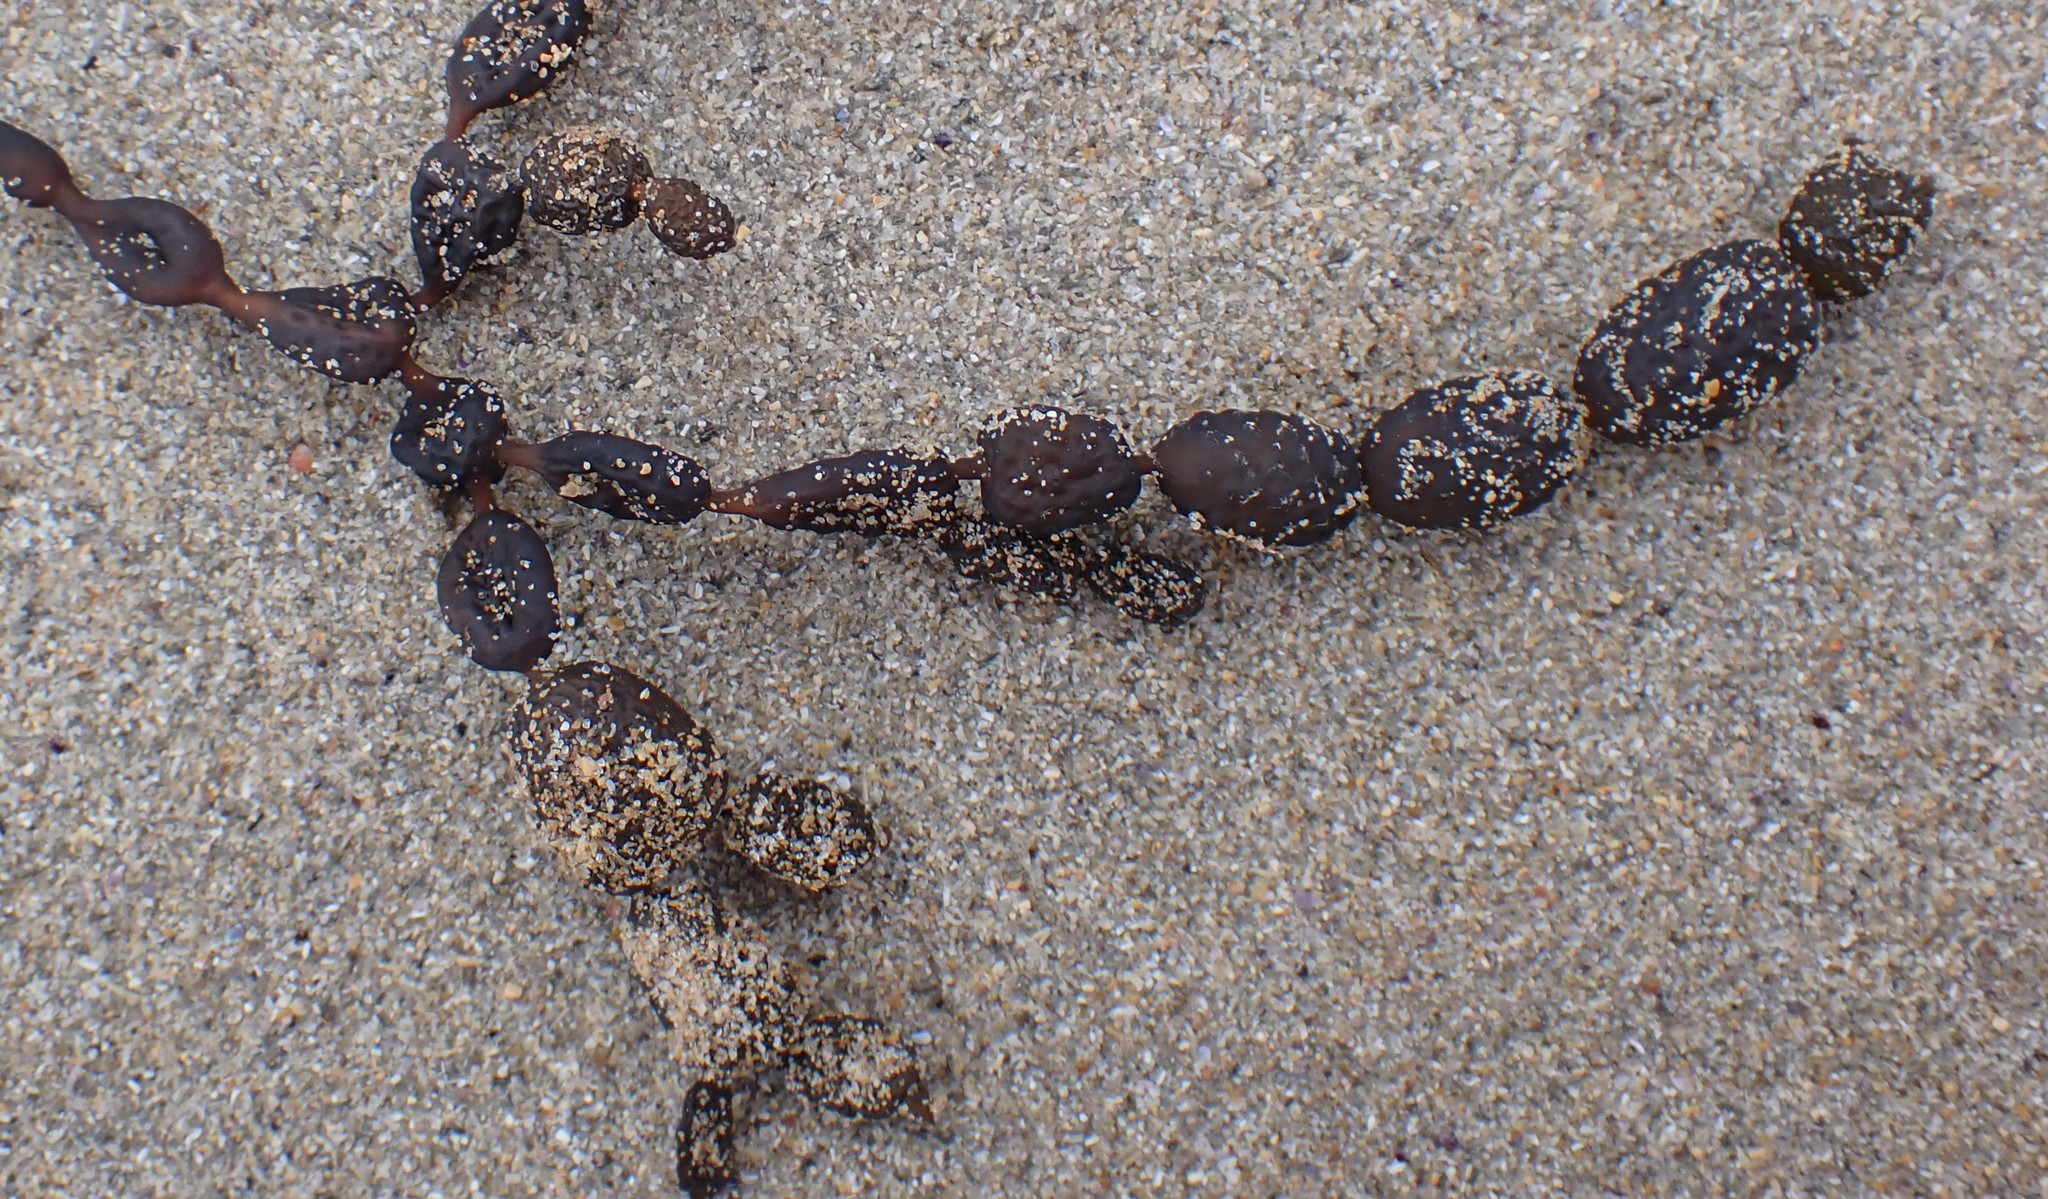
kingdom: Chromista
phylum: Ochrophyta
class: Phaeophyceae
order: Fucales
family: Hormosiraceae
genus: Hormosira
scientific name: Hormosira banksii
